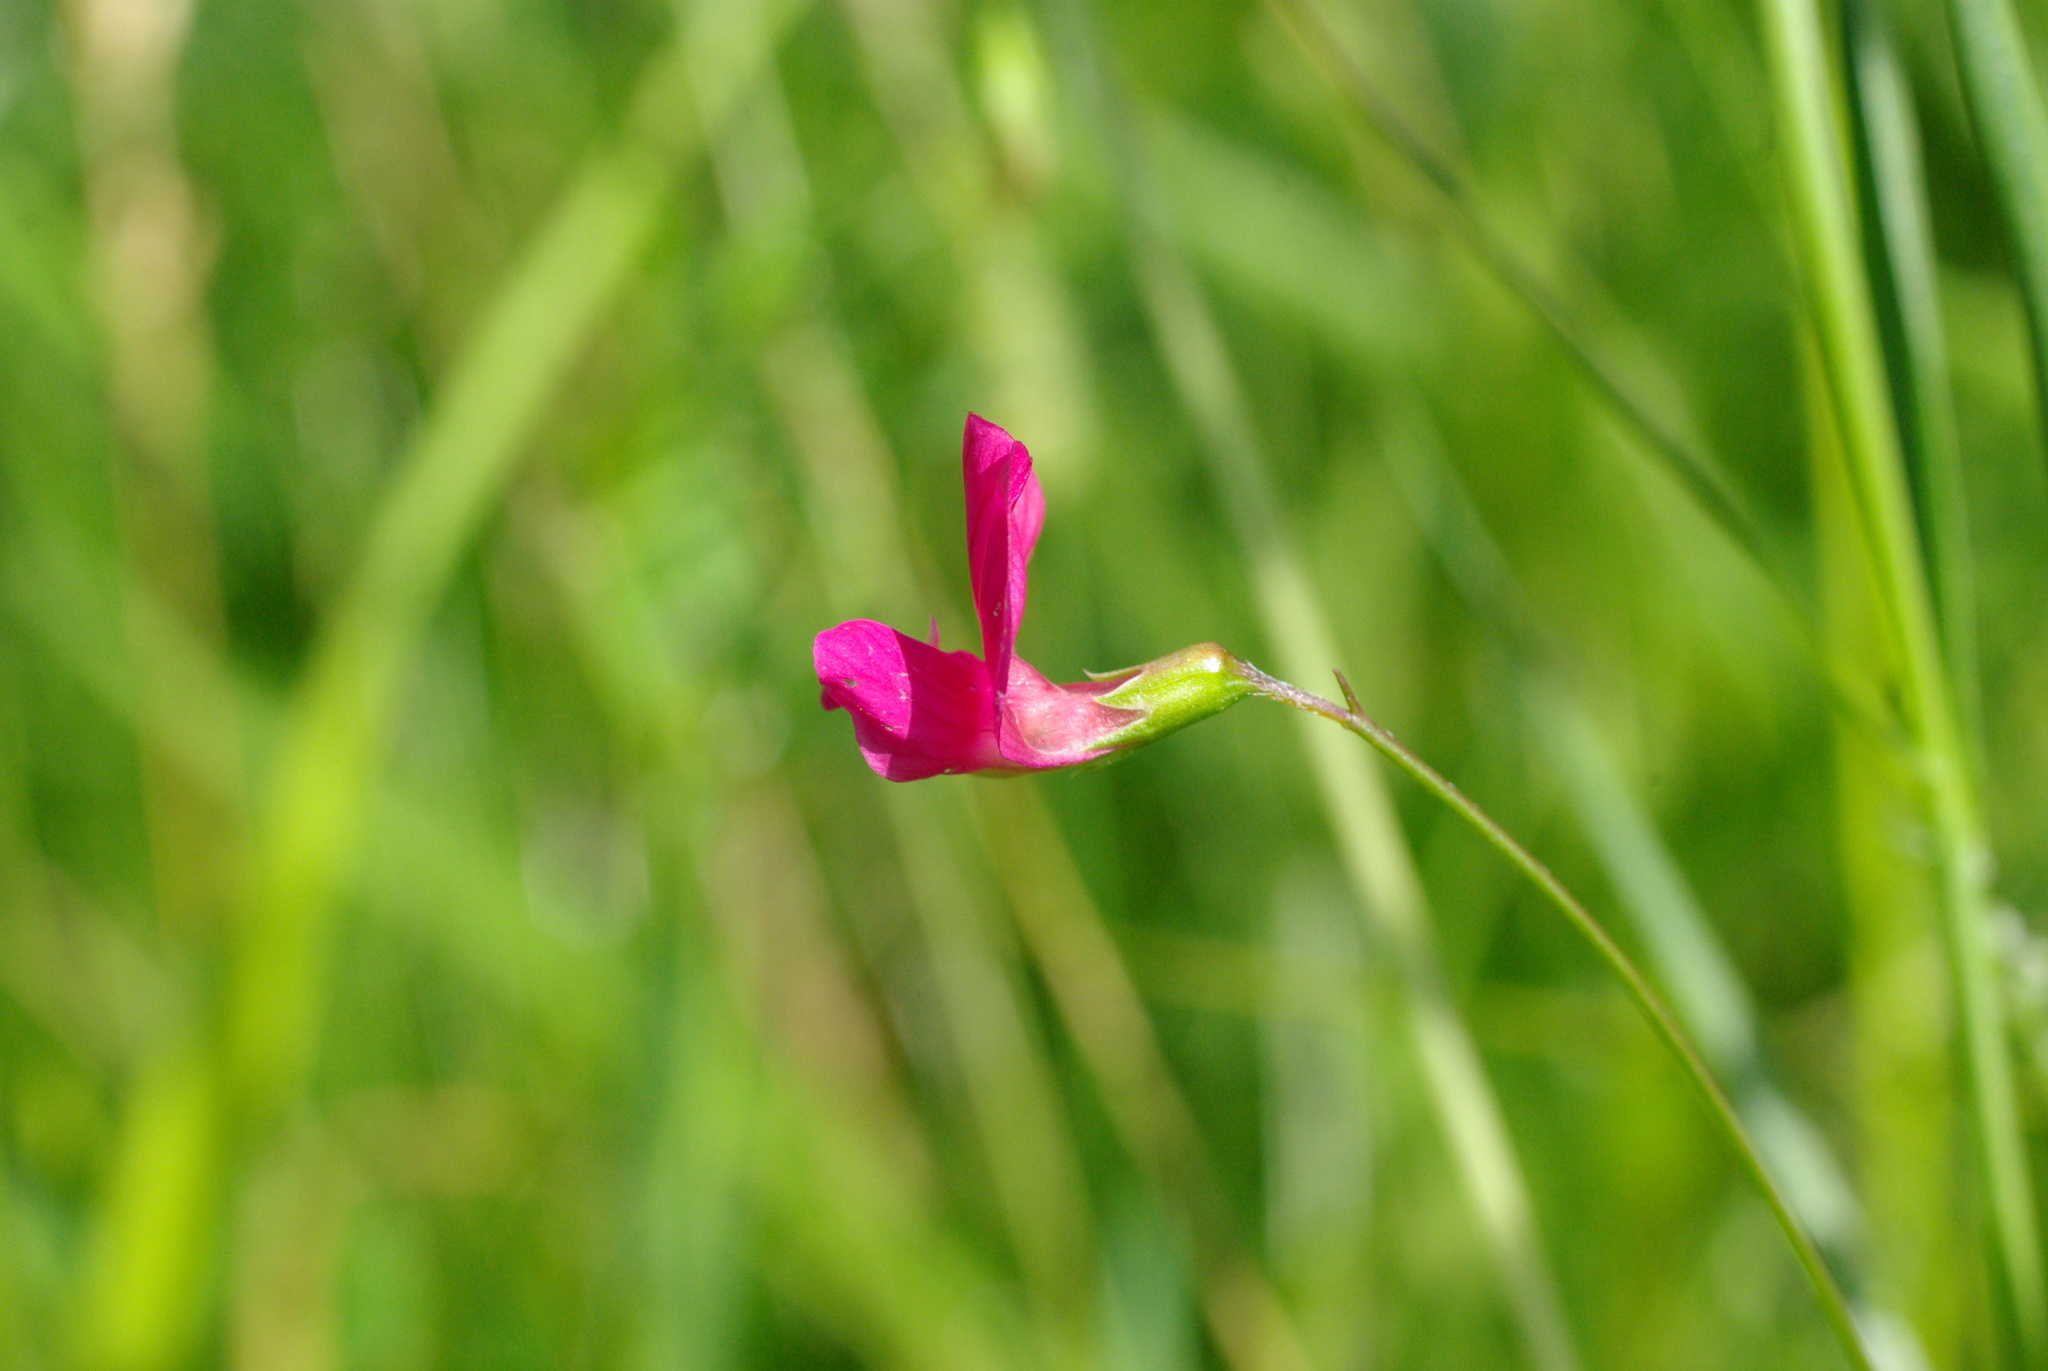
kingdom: Plantae
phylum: Tracheophyta
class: Magnoliopsida
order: Fabales
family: Fabaceae
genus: Lathyrus
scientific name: Lathyrus nissolia
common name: Grass vetchling
